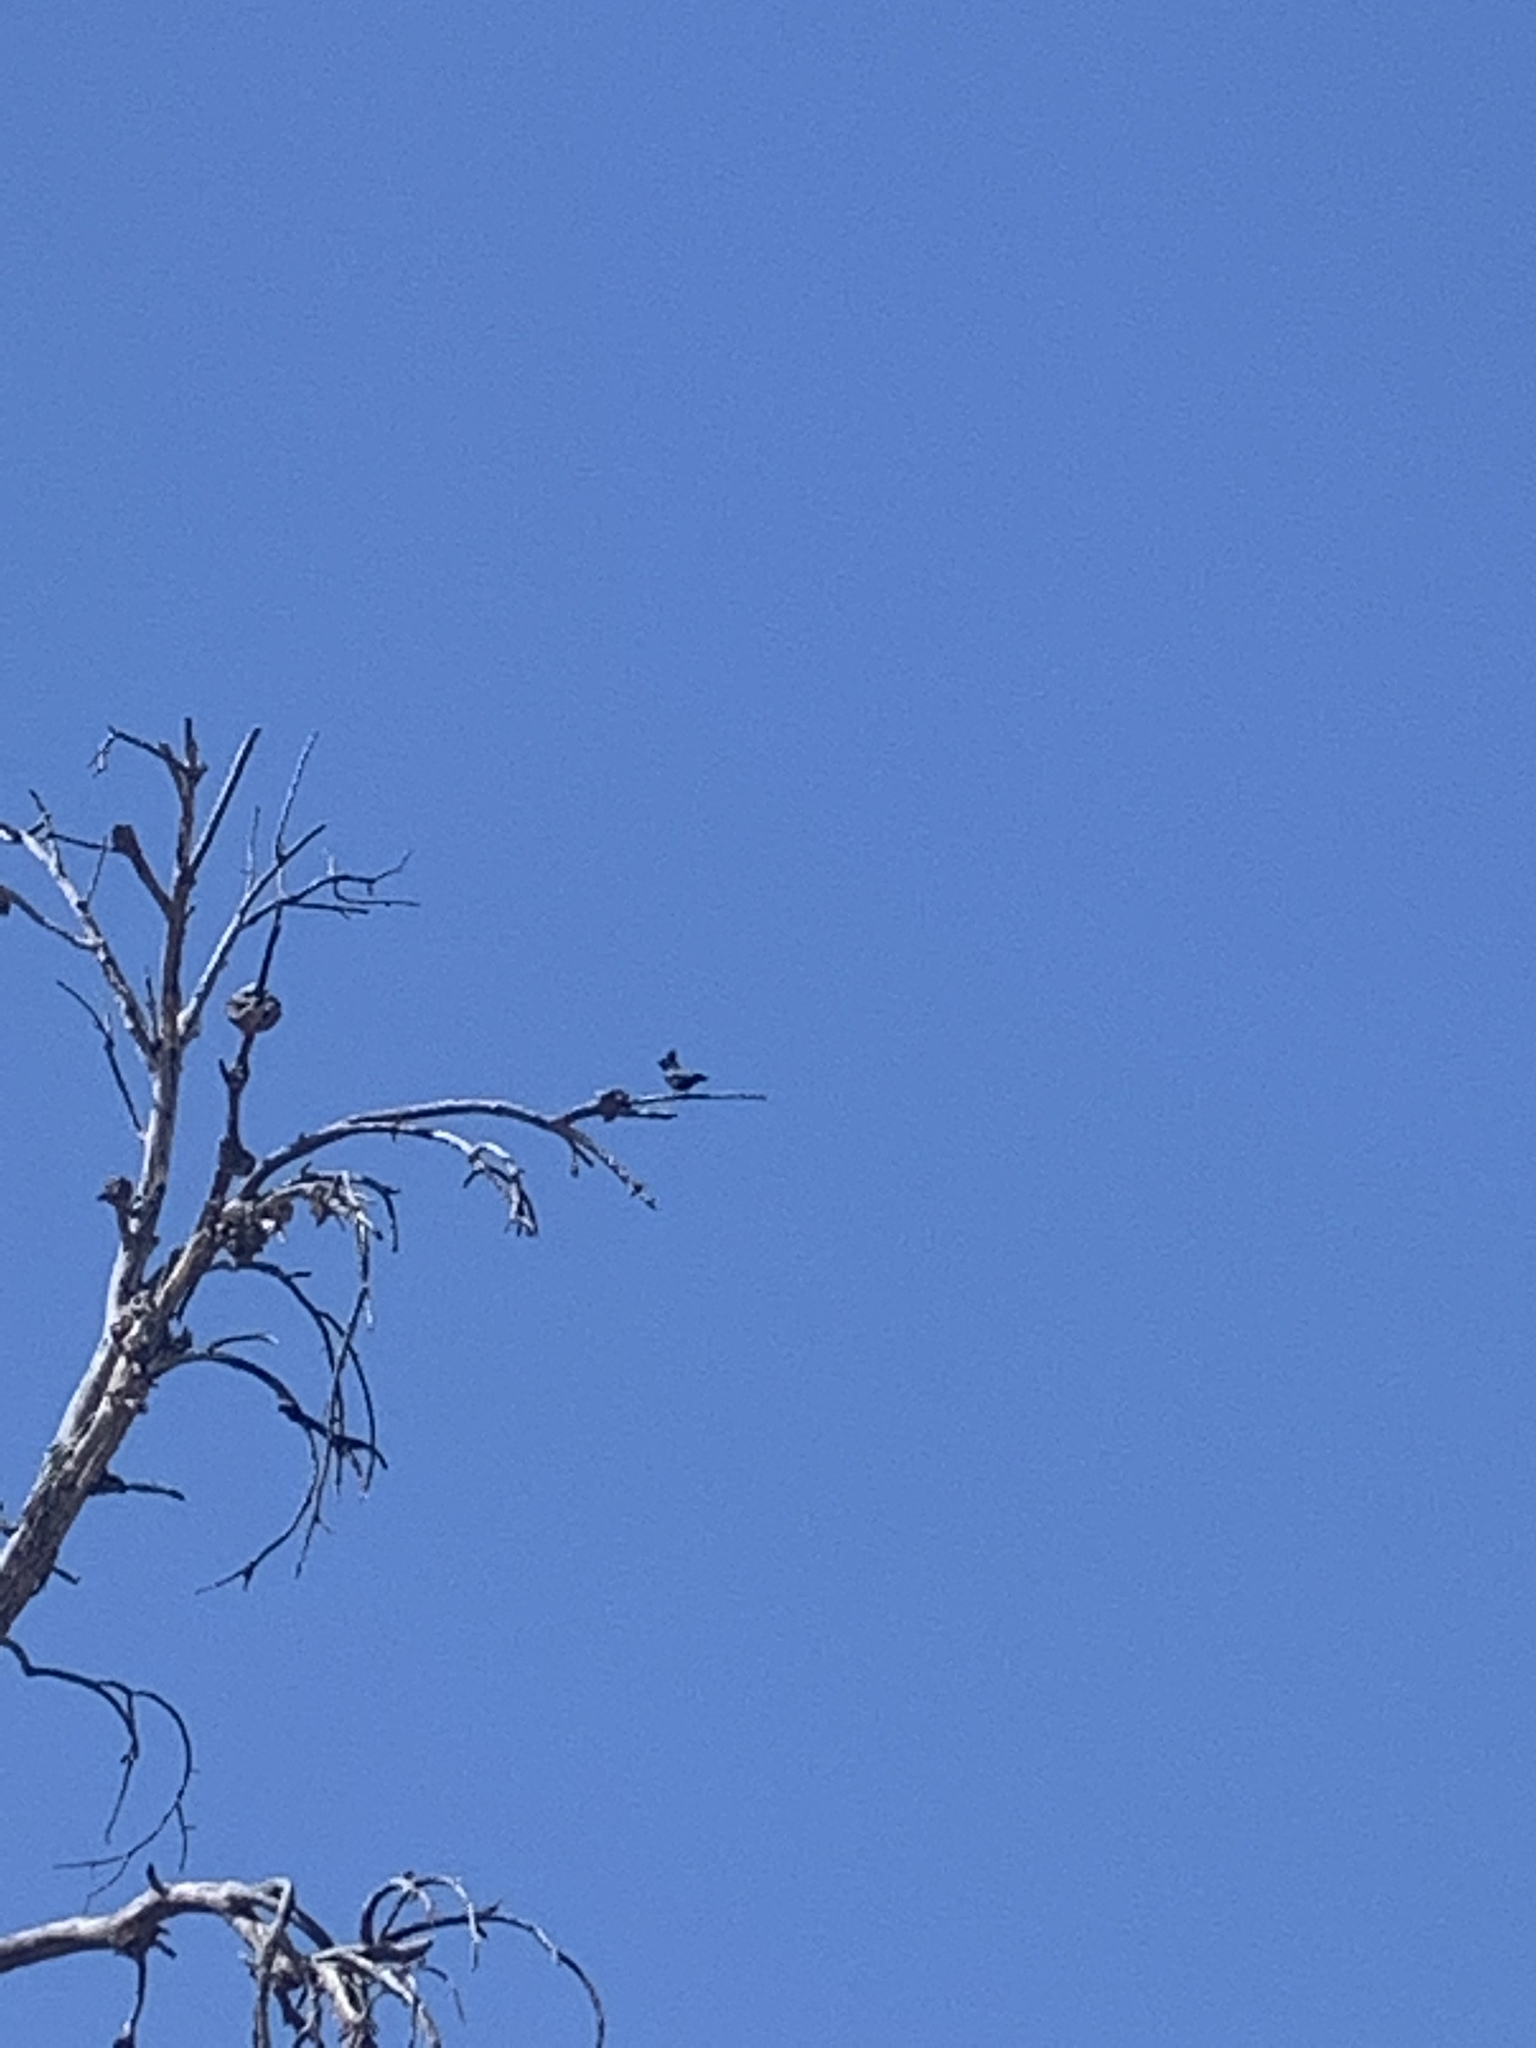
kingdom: Animalia
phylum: Chordata
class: Aves
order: Passeriformes
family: Ptilogonatidae
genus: Phainopepla
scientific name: Phainopepla nitens
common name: Phainopepla
